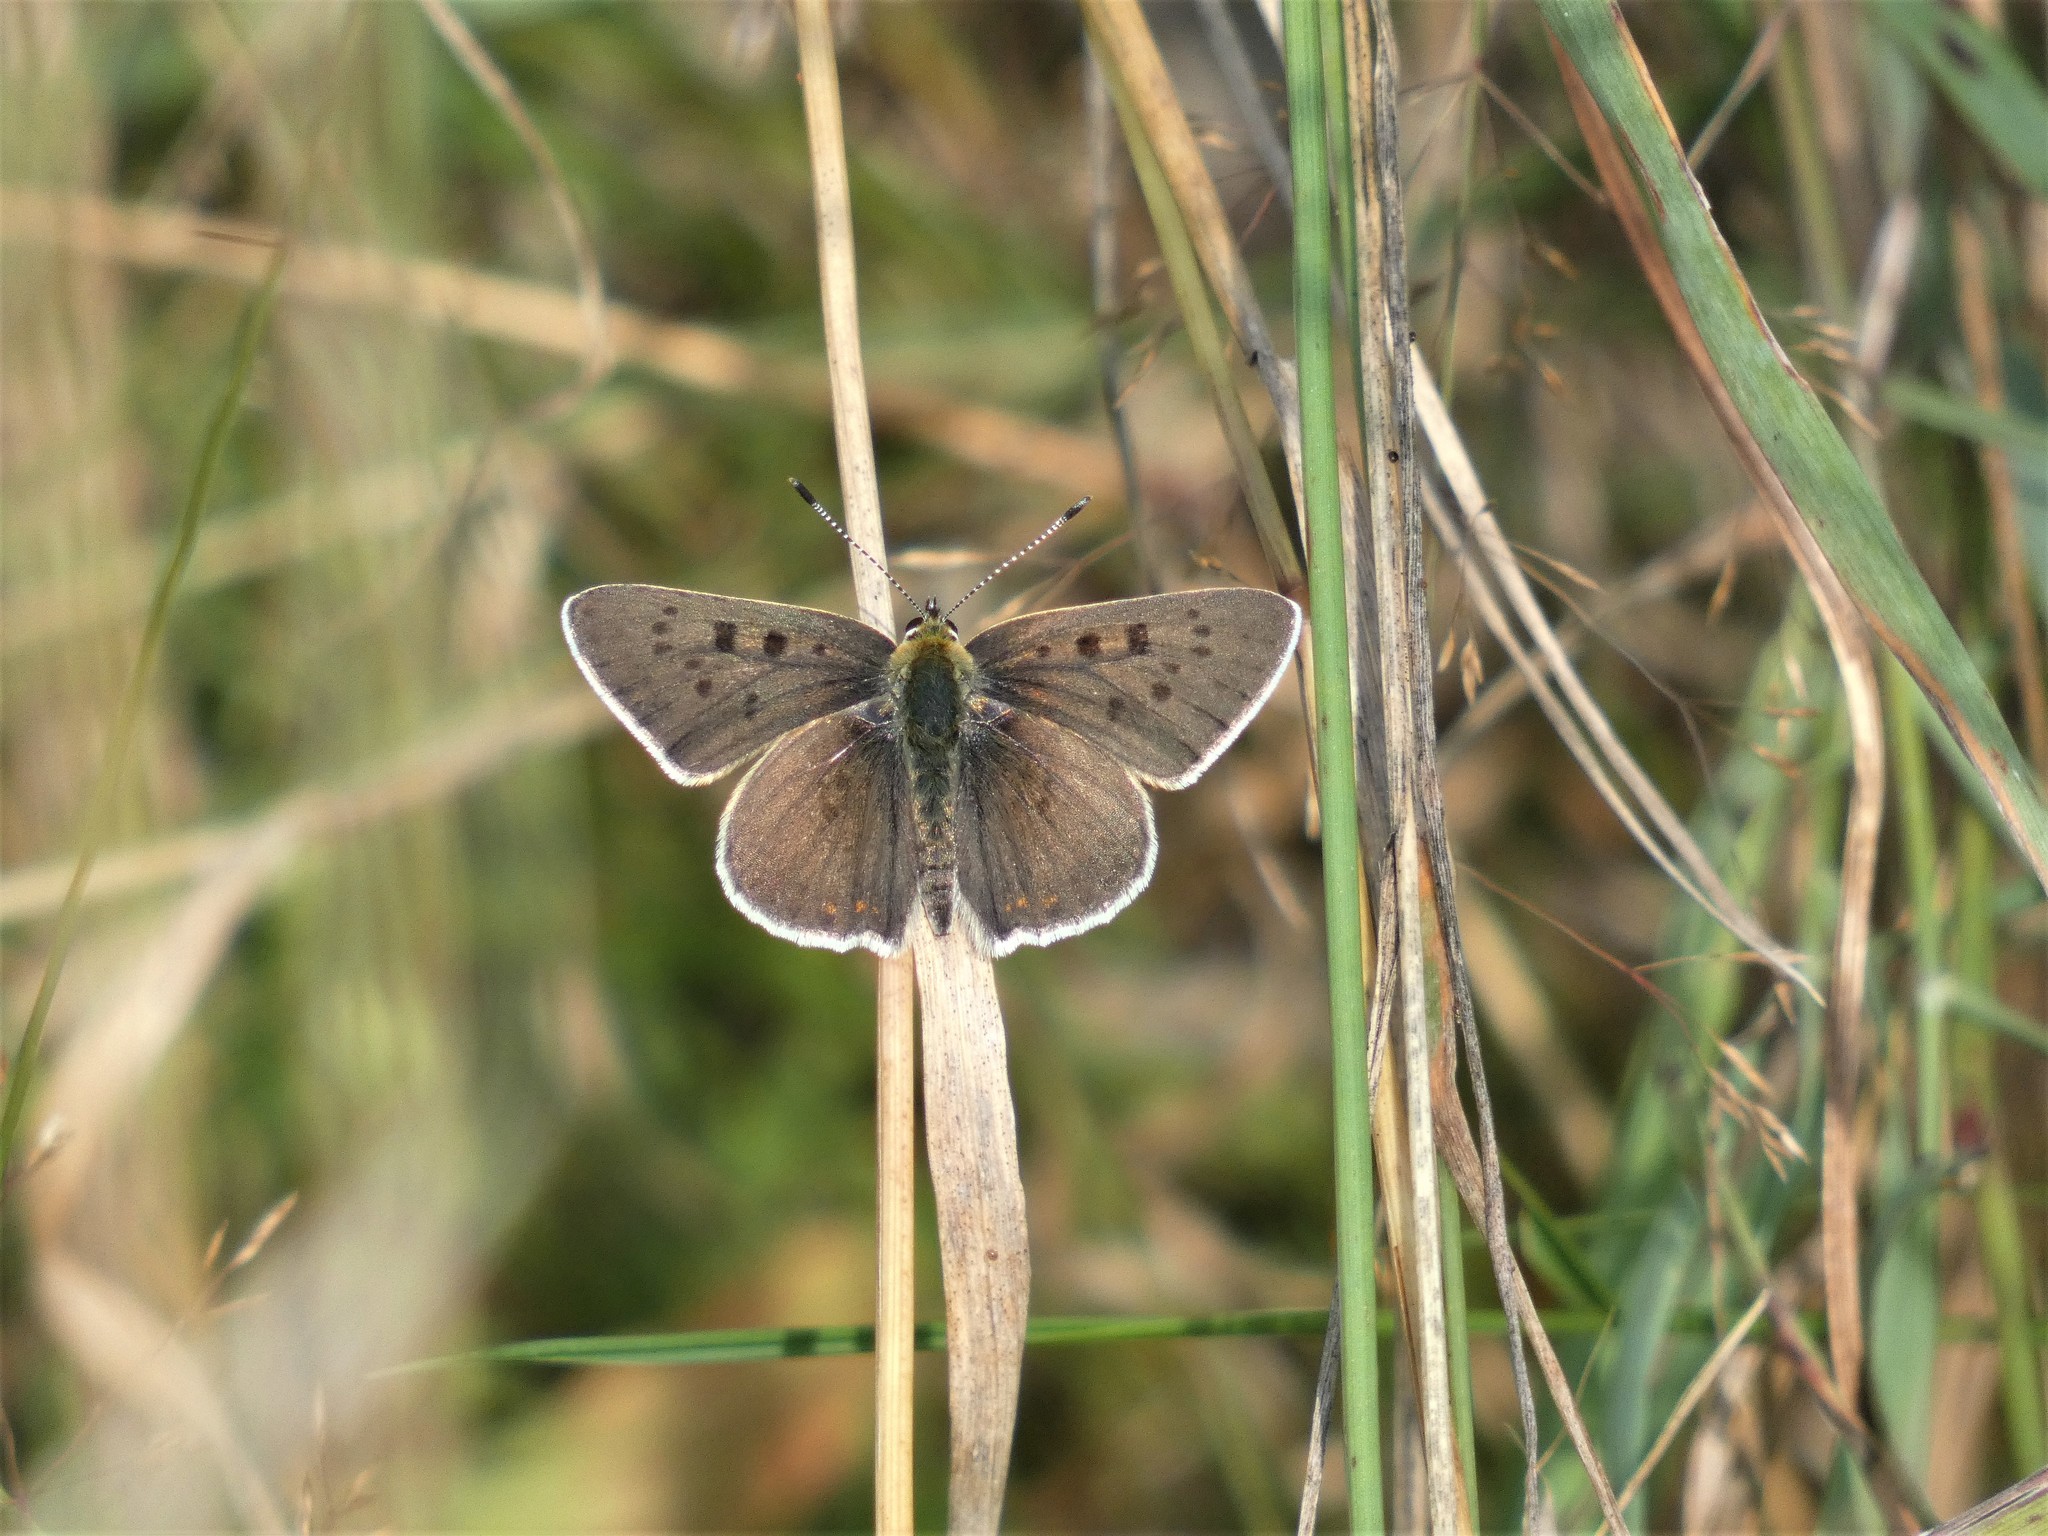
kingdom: Animalia
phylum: Arthropoda
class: Insecta
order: Lepidoptera
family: Lycaenidae
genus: Loweia
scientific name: Loweia tityrus
